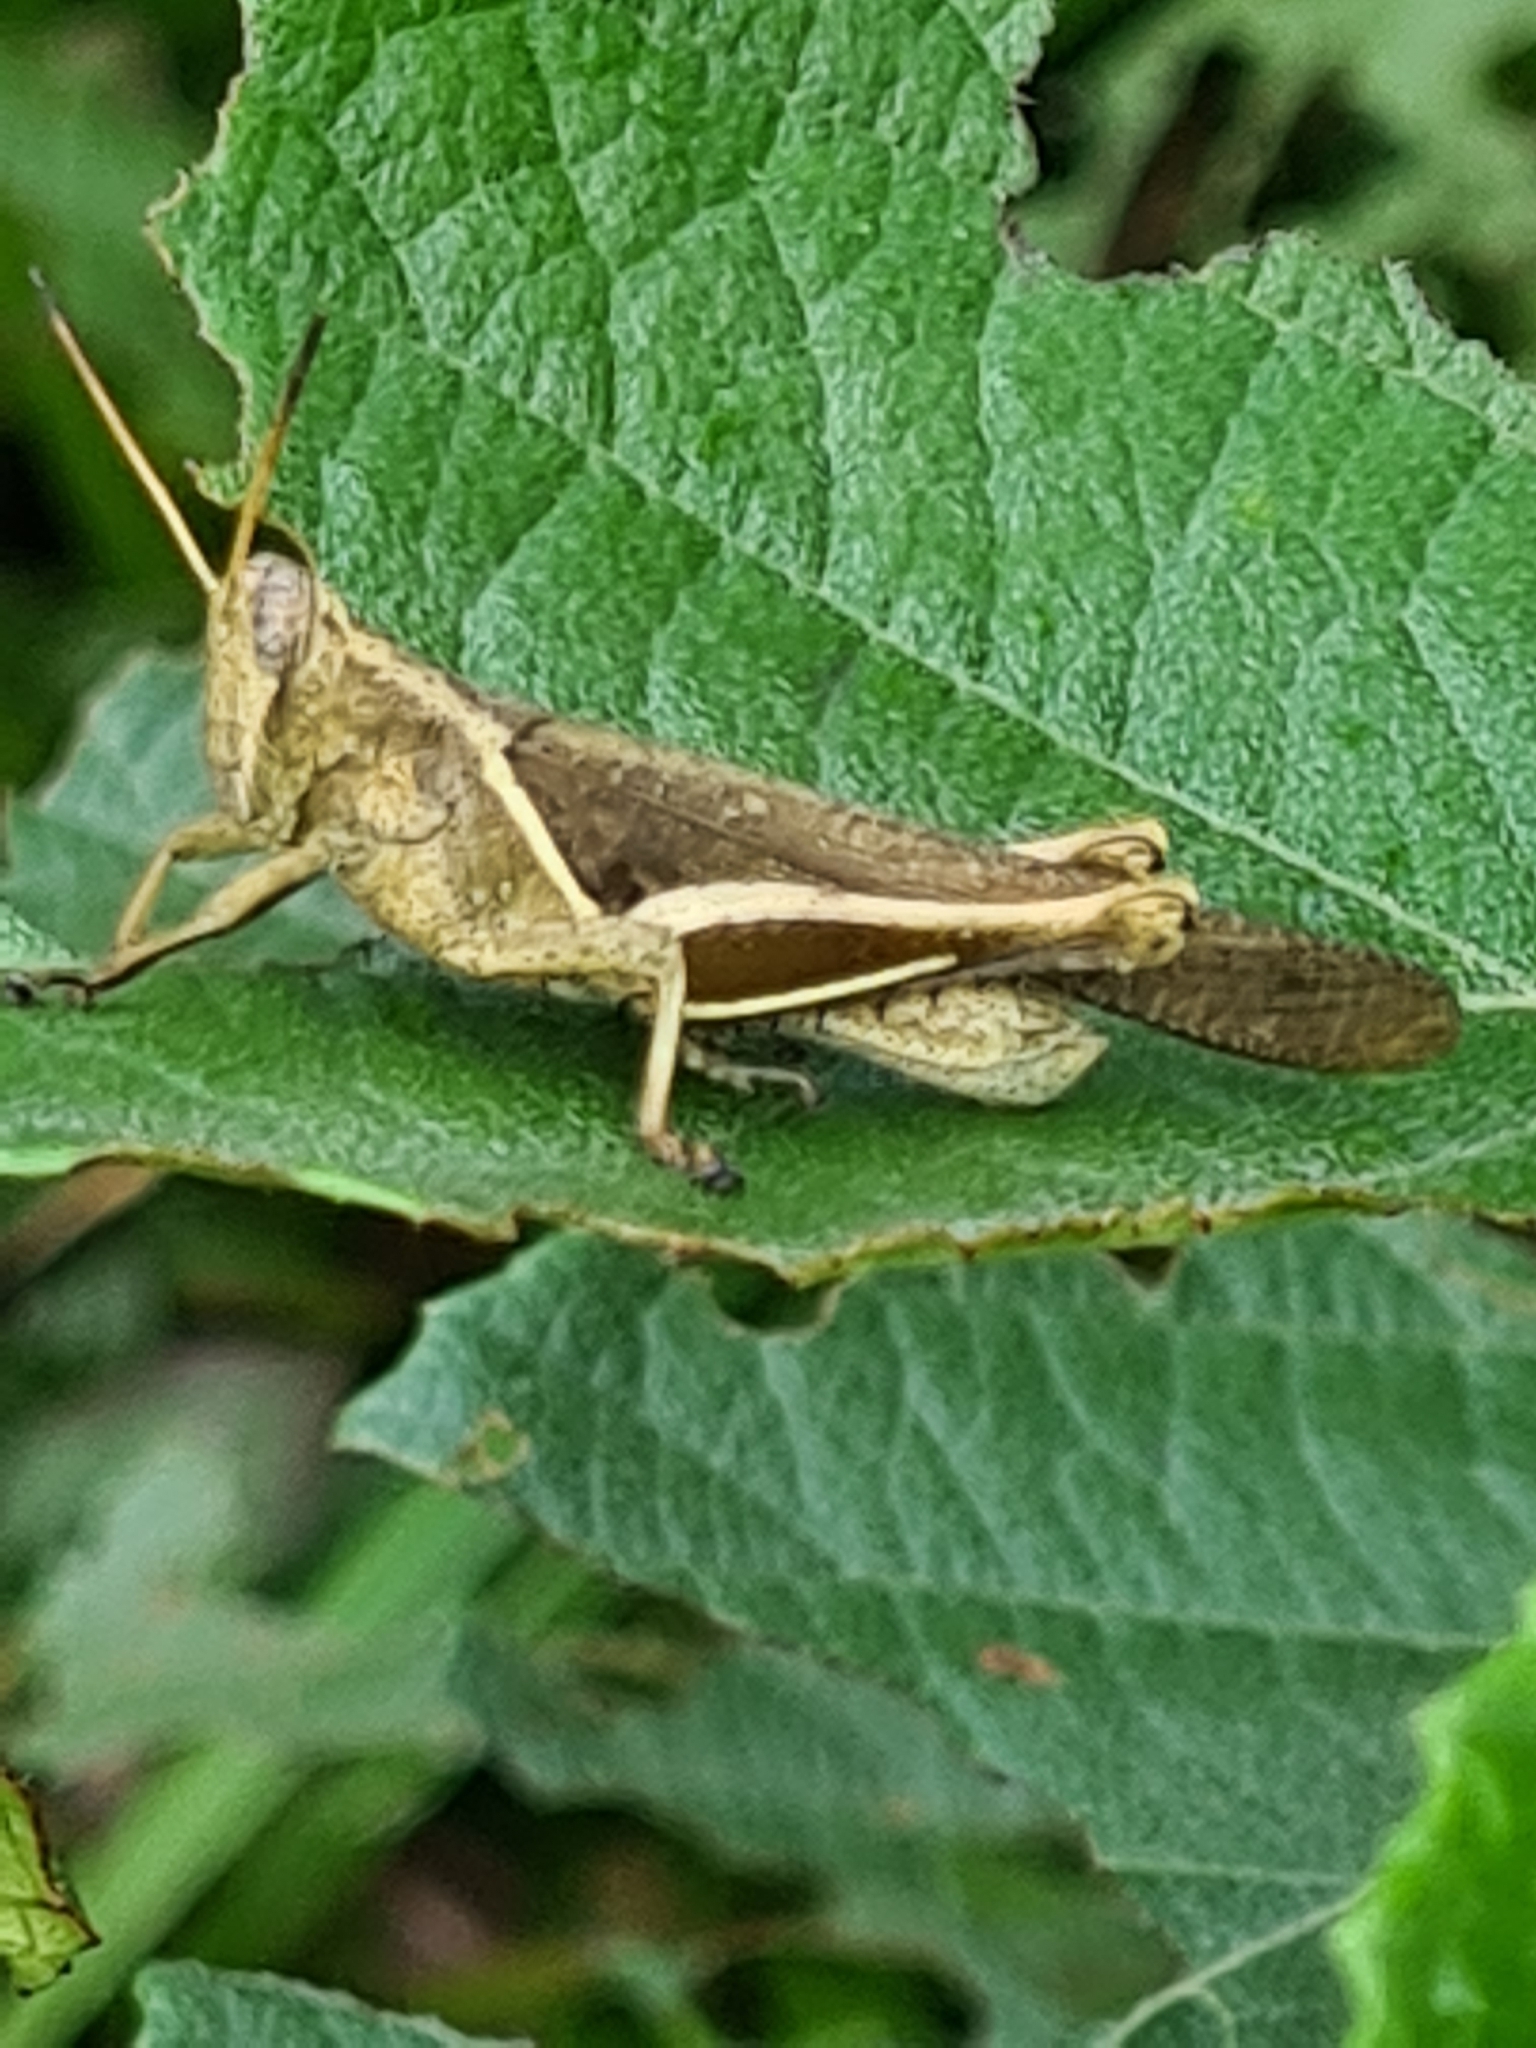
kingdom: Animalia
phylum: Arthropoda
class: Insecta
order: Orthoptera
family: Acrididae
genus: Abracris
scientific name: Abracris flavolineata
